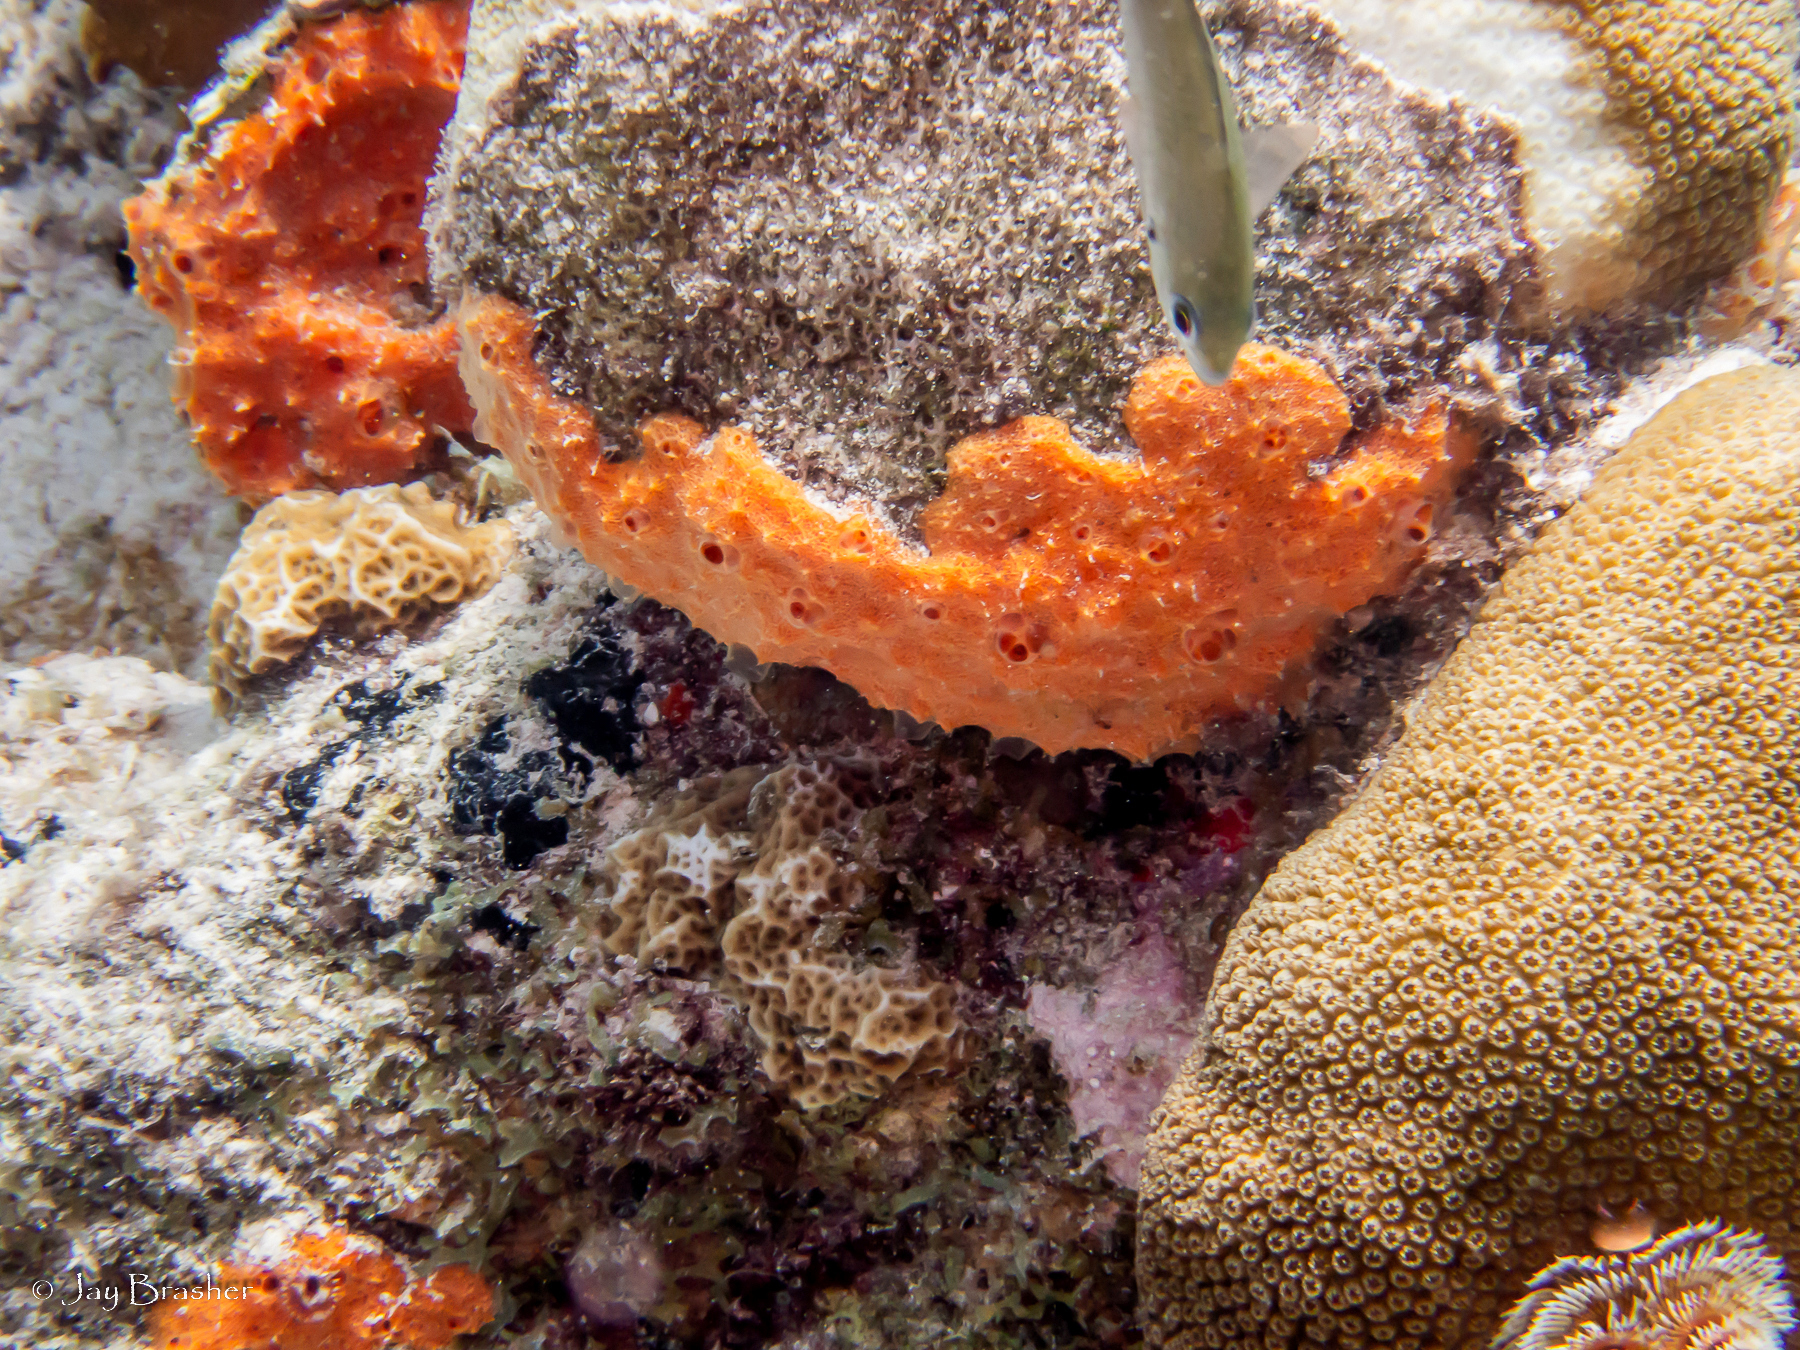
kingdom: Animalia
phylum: Chordata
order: Perciformes
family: Pomacentridae
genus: Chromis
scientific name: Chromis multilineata
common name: Brown chromis
